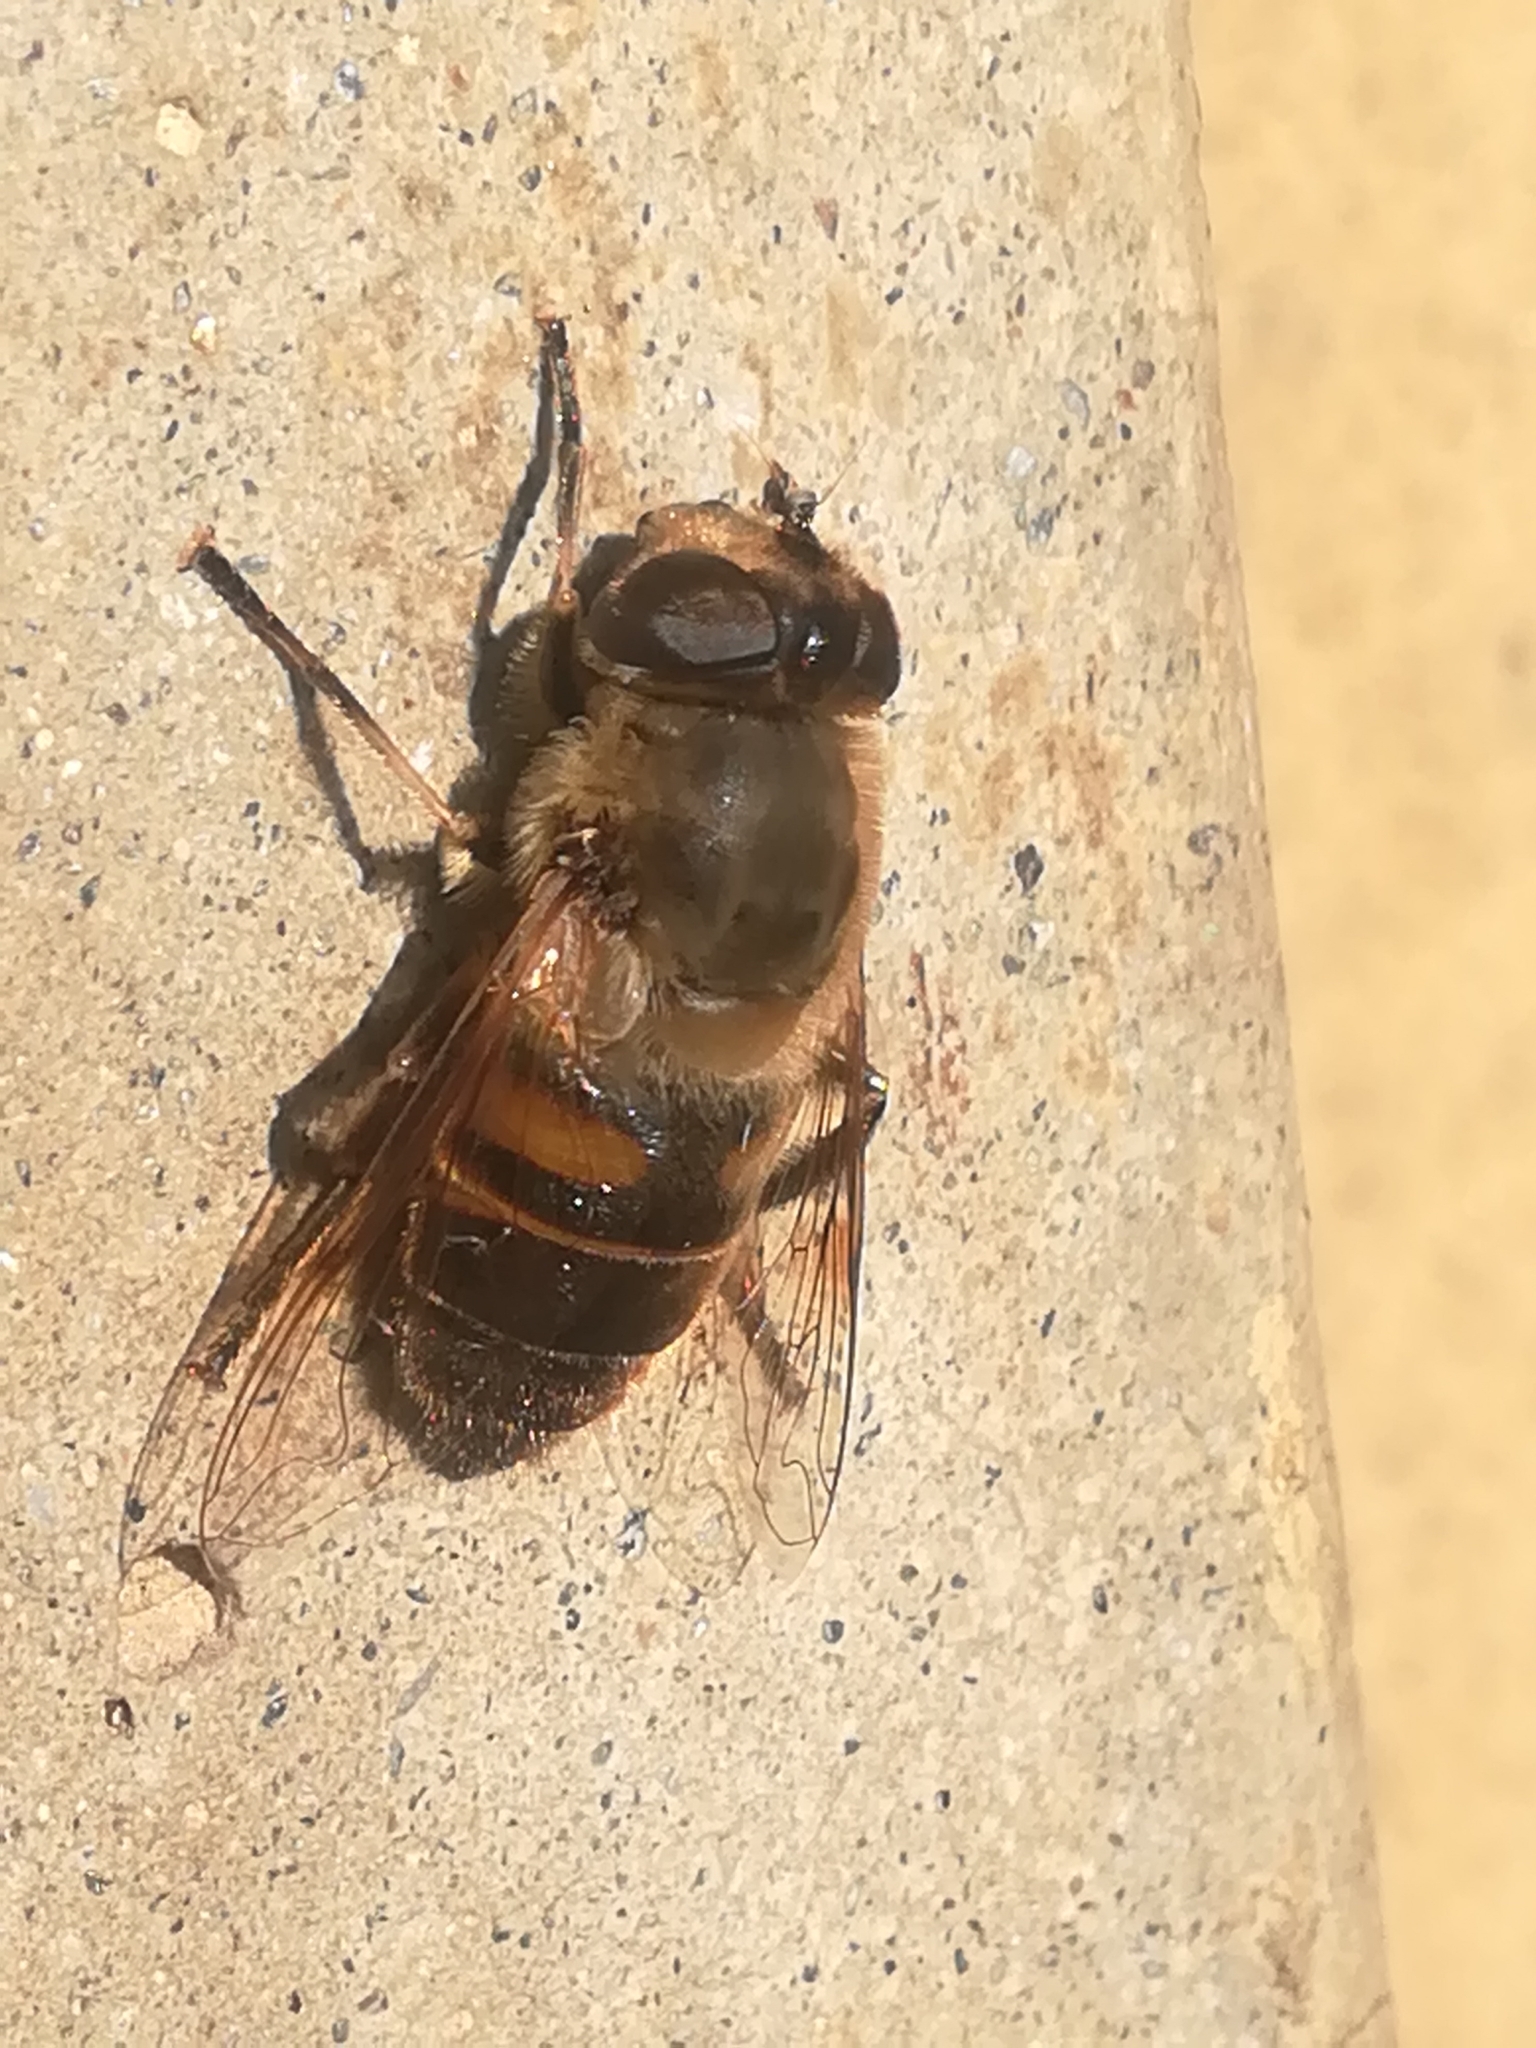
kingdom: Animalia
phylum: Arthropoda
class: Insecta
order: Diptera
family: Syrphidae
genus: Eristalis
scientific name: Eristalis tenax
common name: Drone fly
